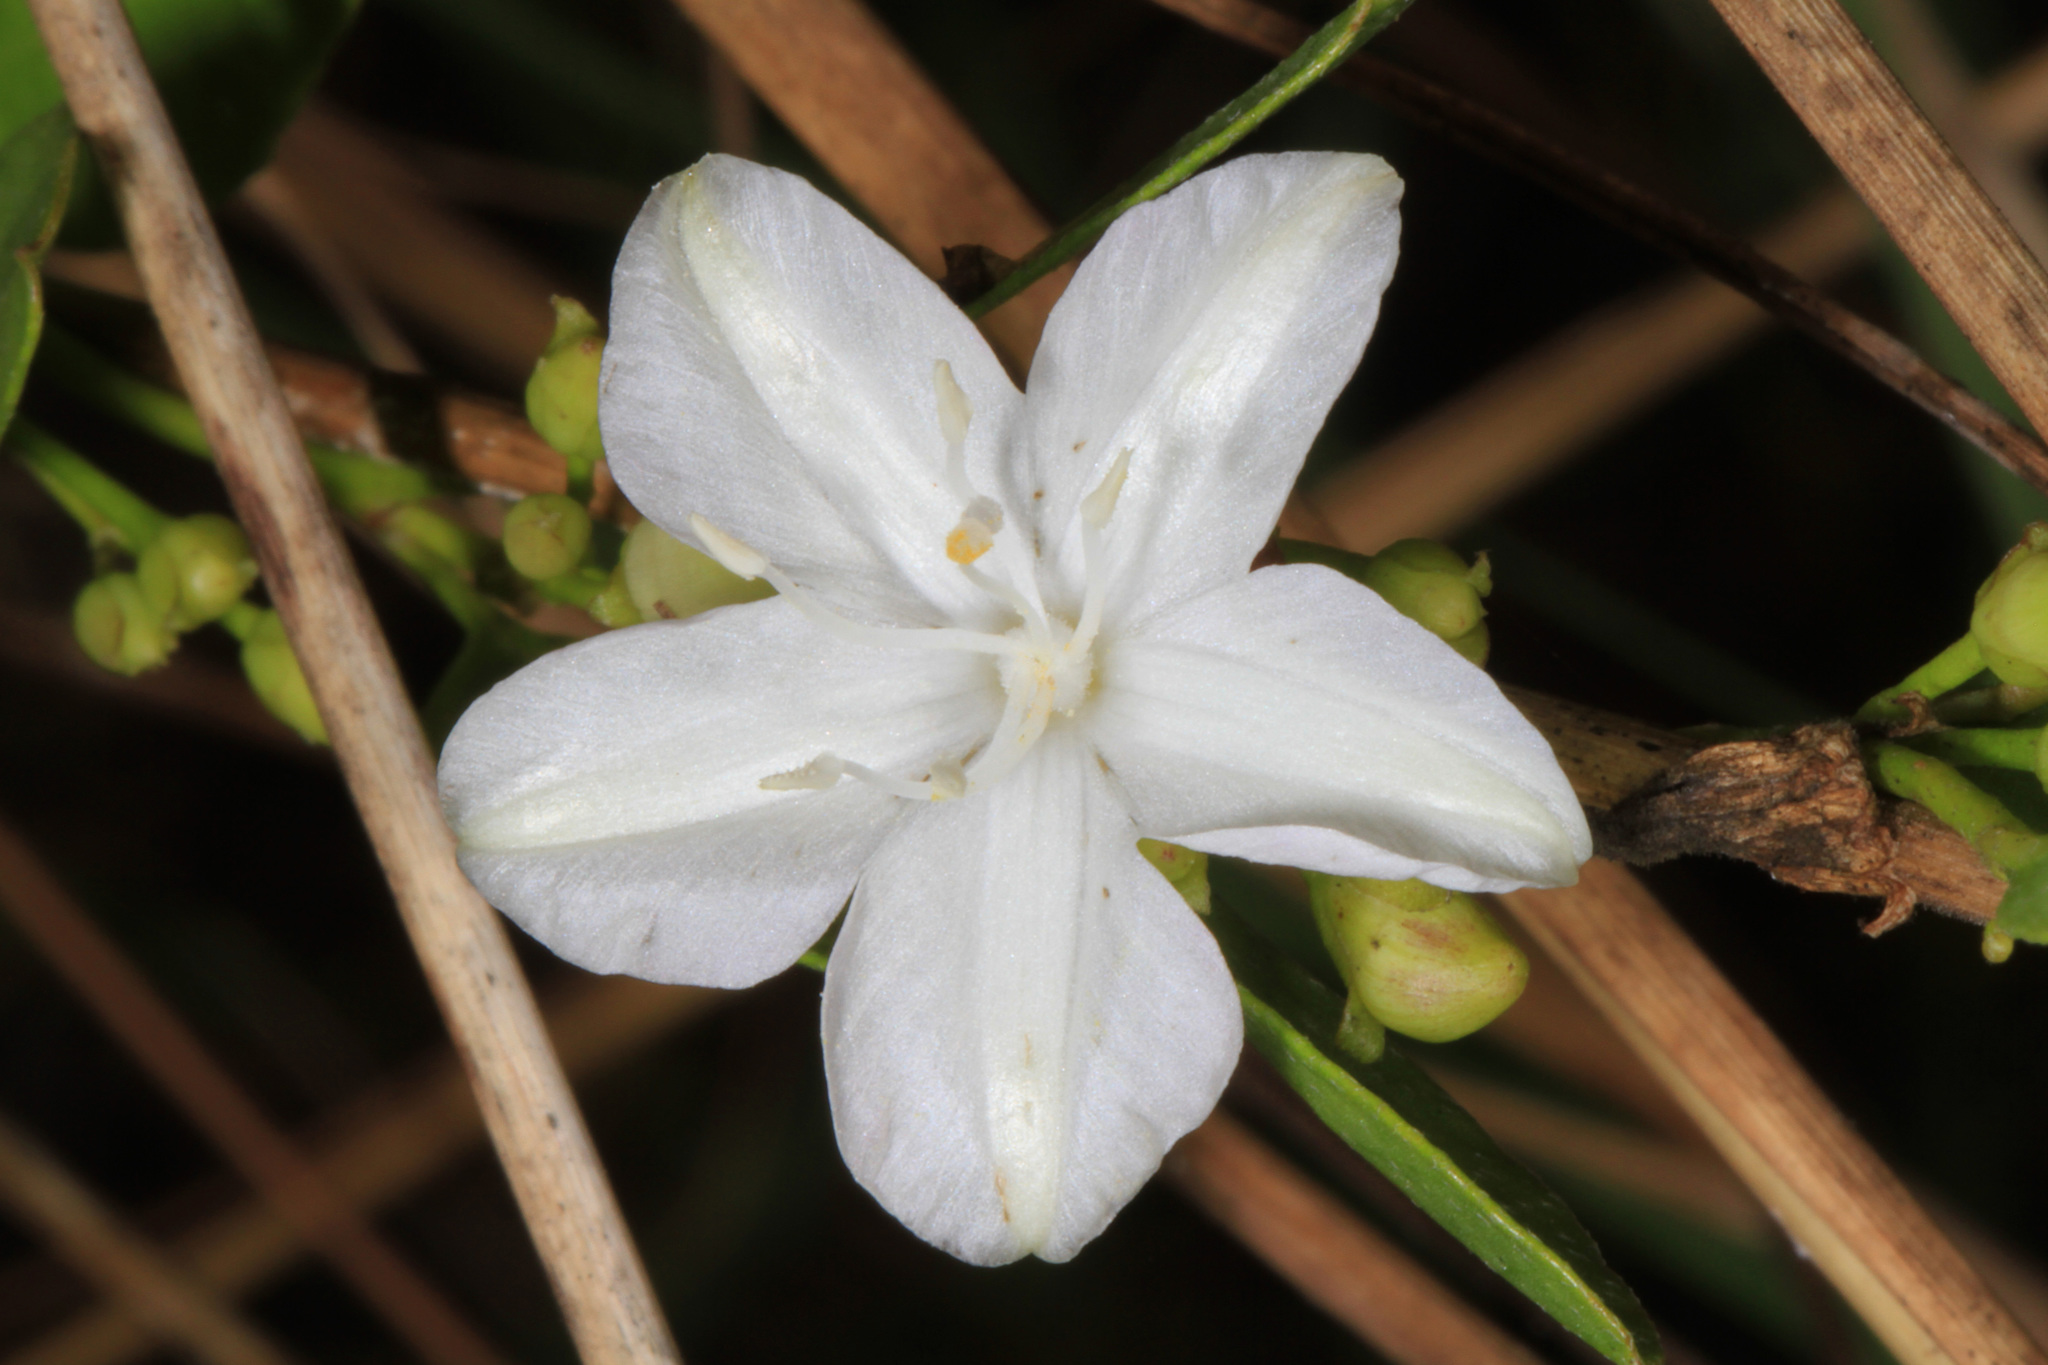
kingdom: Plantae
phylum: Tracheophyta
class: Magnoliopsida
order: Solanales
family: Convolvulaceae
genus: Jacquemontia
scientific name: Jacquemontia curtissii
